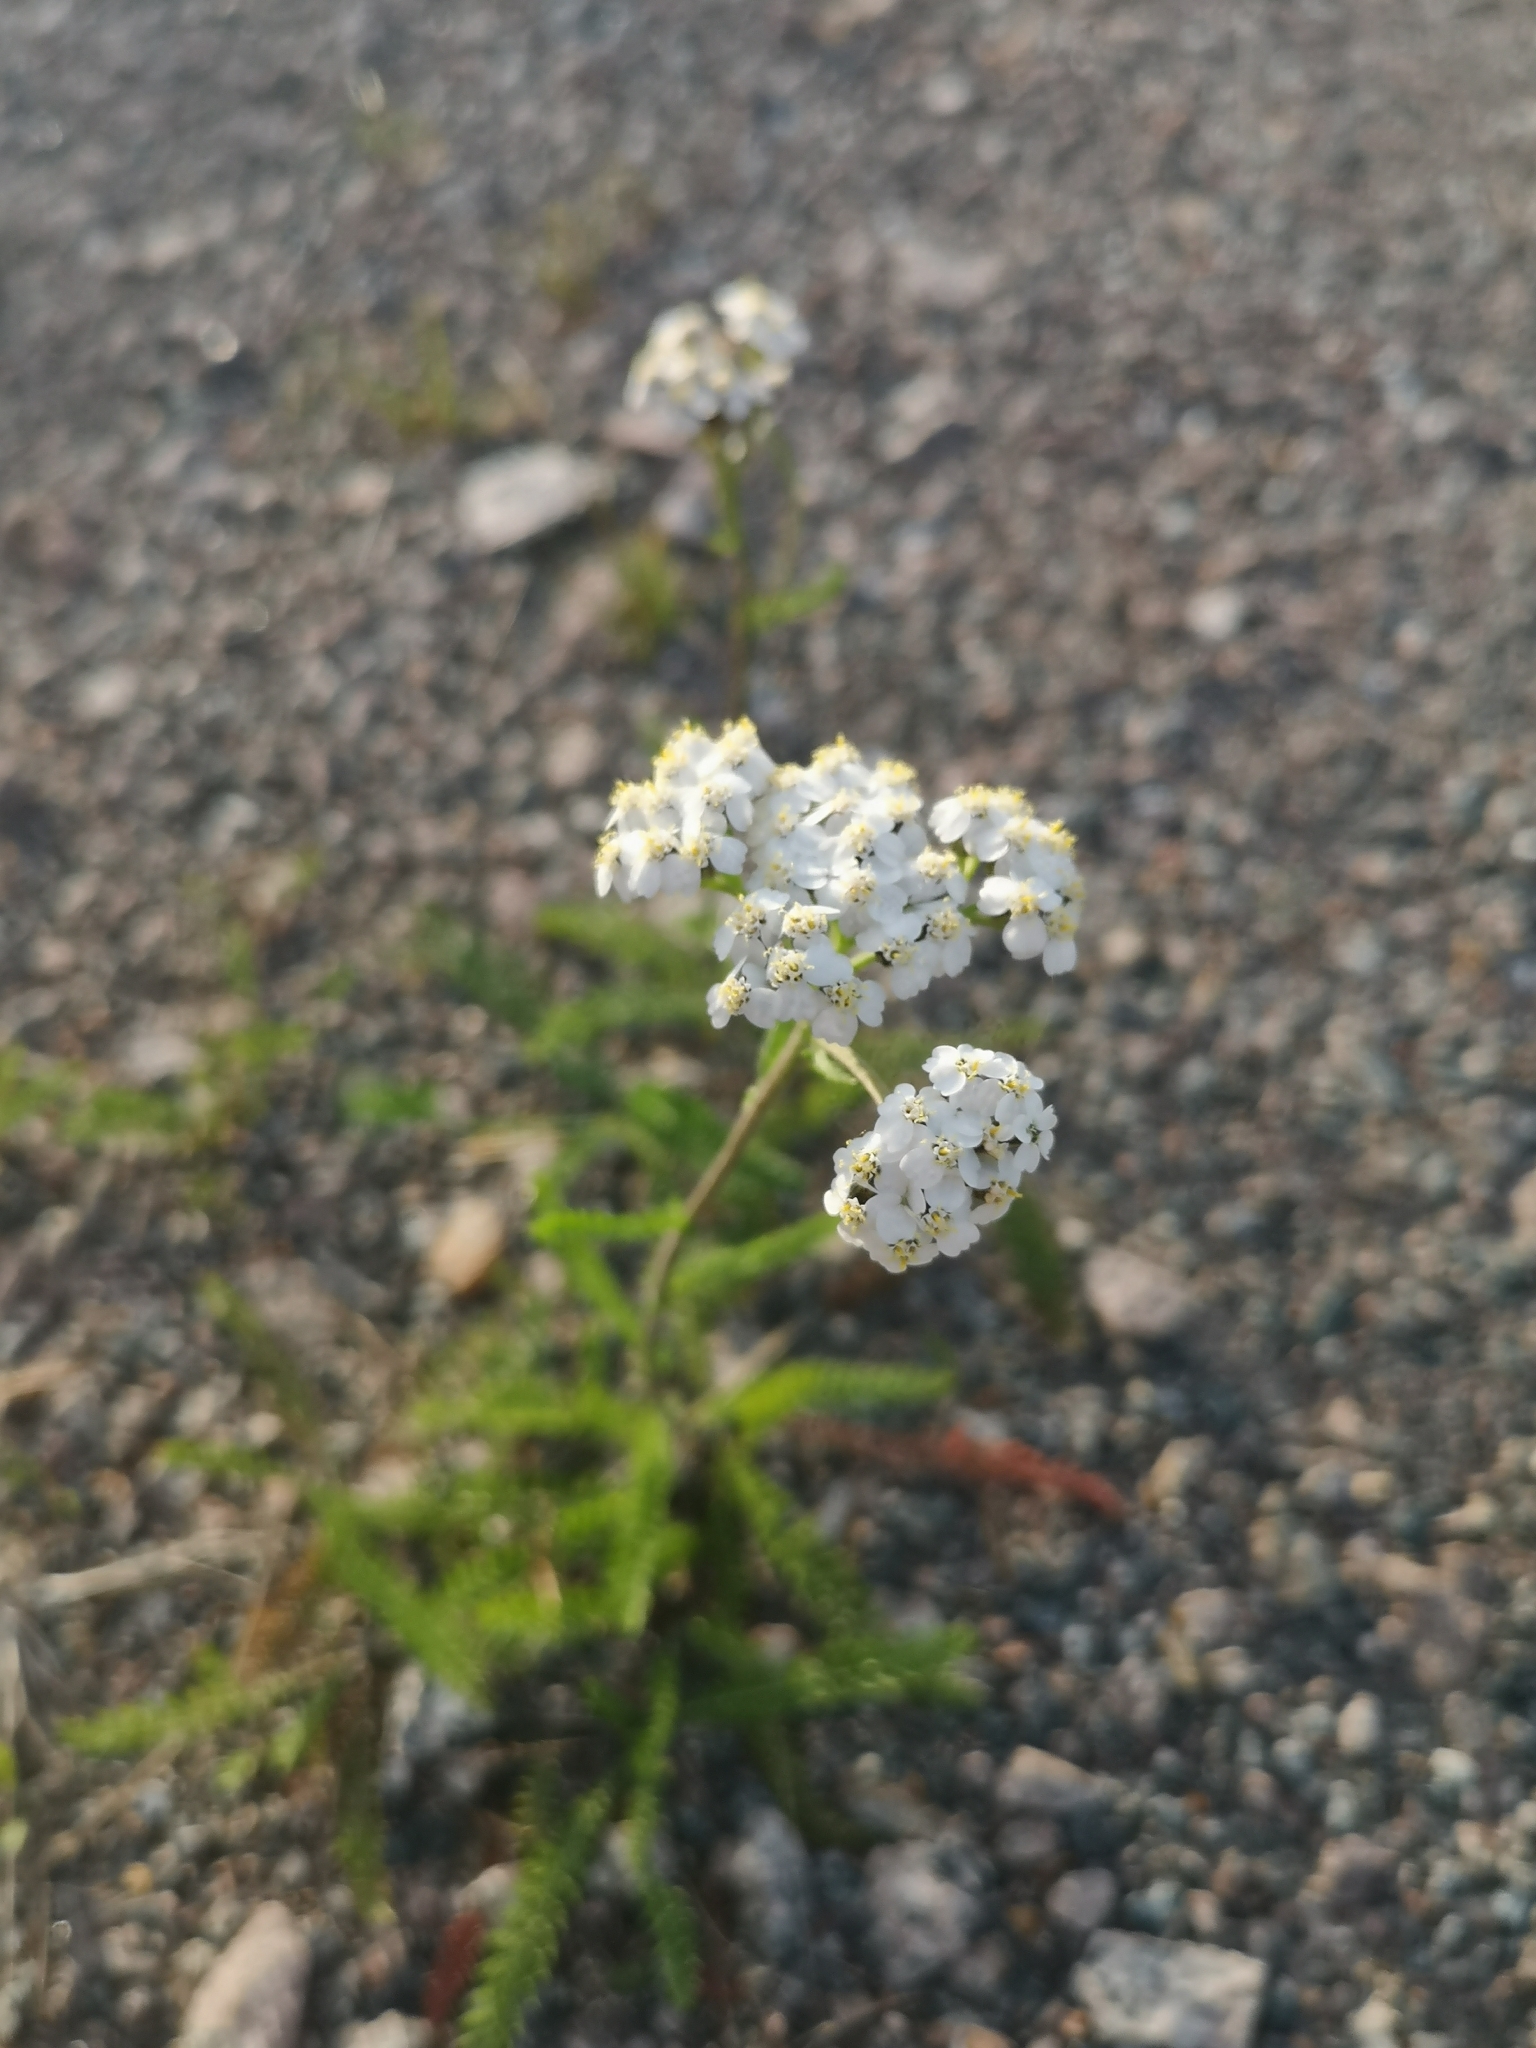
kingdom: Plantae
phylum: Tracheophyta
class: Magnoliopsida
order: Asterales
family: Asteraceae
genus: Achillea
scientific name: Achillea millefolium
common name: Yarrow
